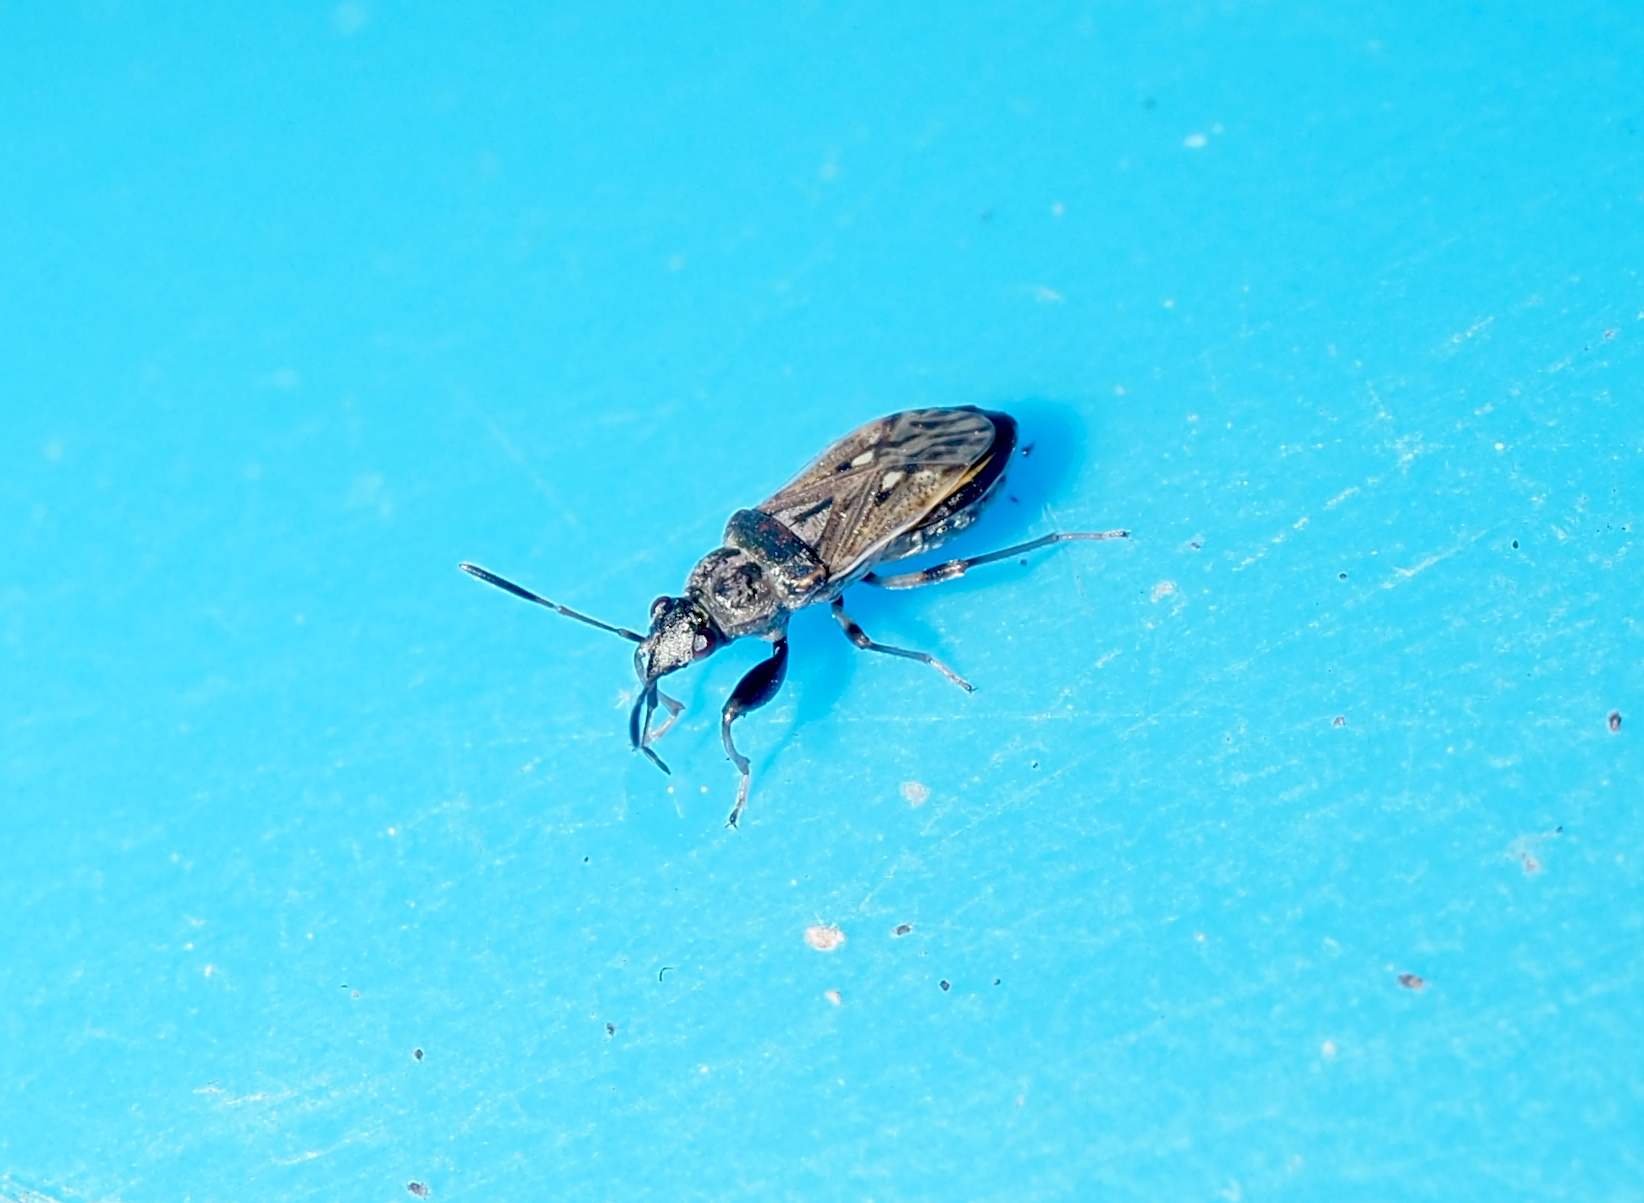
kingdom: Animalia
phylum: Arthropoda
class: Insecta
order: Hemiptera
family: Rhyparochromidae
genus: Pseudopachybrachius
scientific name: Pseudopachybrachius basalis
